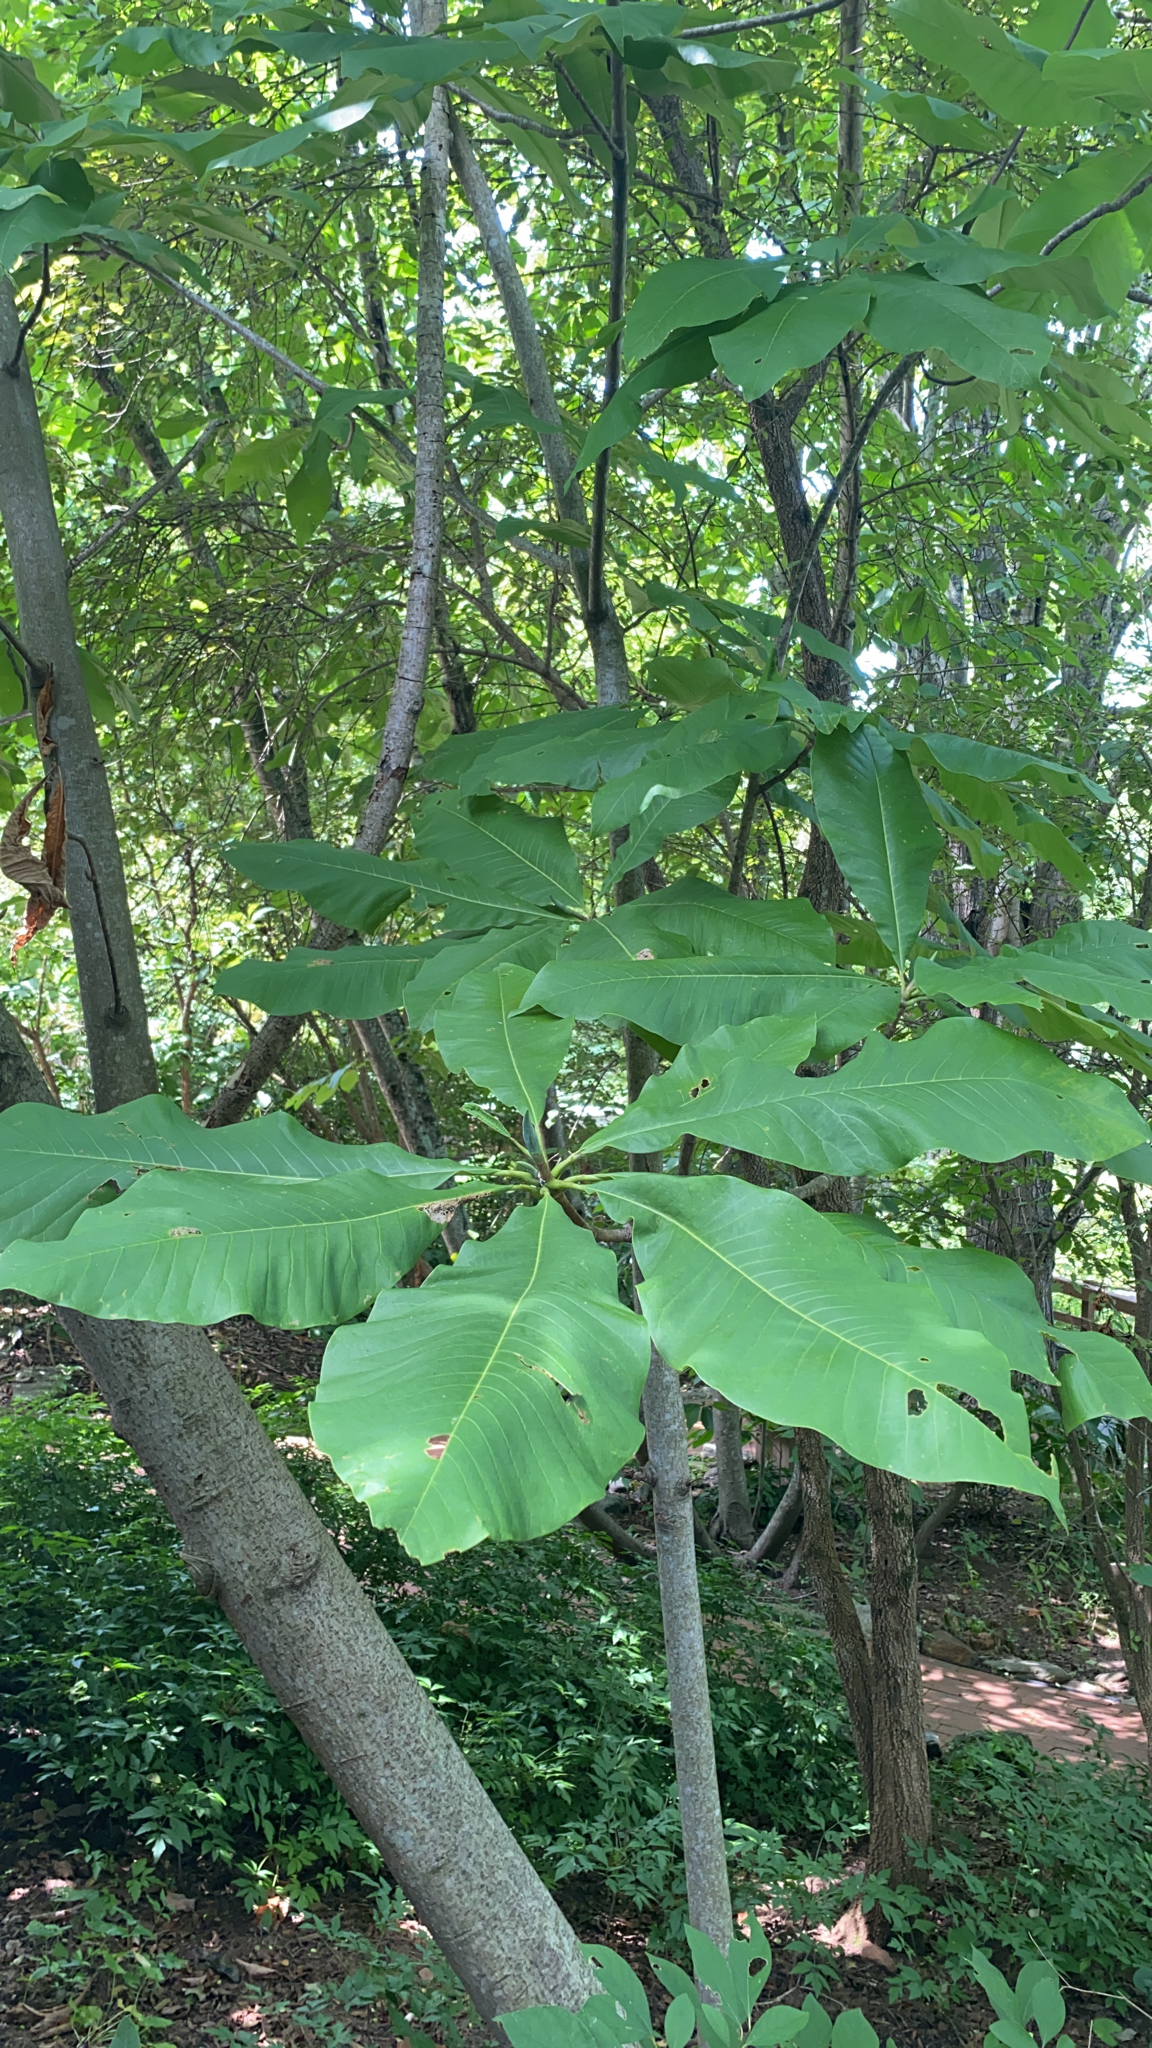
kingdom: Plantae
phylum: Tracheophyta
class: Magnoliopsida
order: Magnoliales
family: Magnoliaceae
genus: Magnolia
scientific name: Magnolia tripetala
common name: Umbrella magnolia
